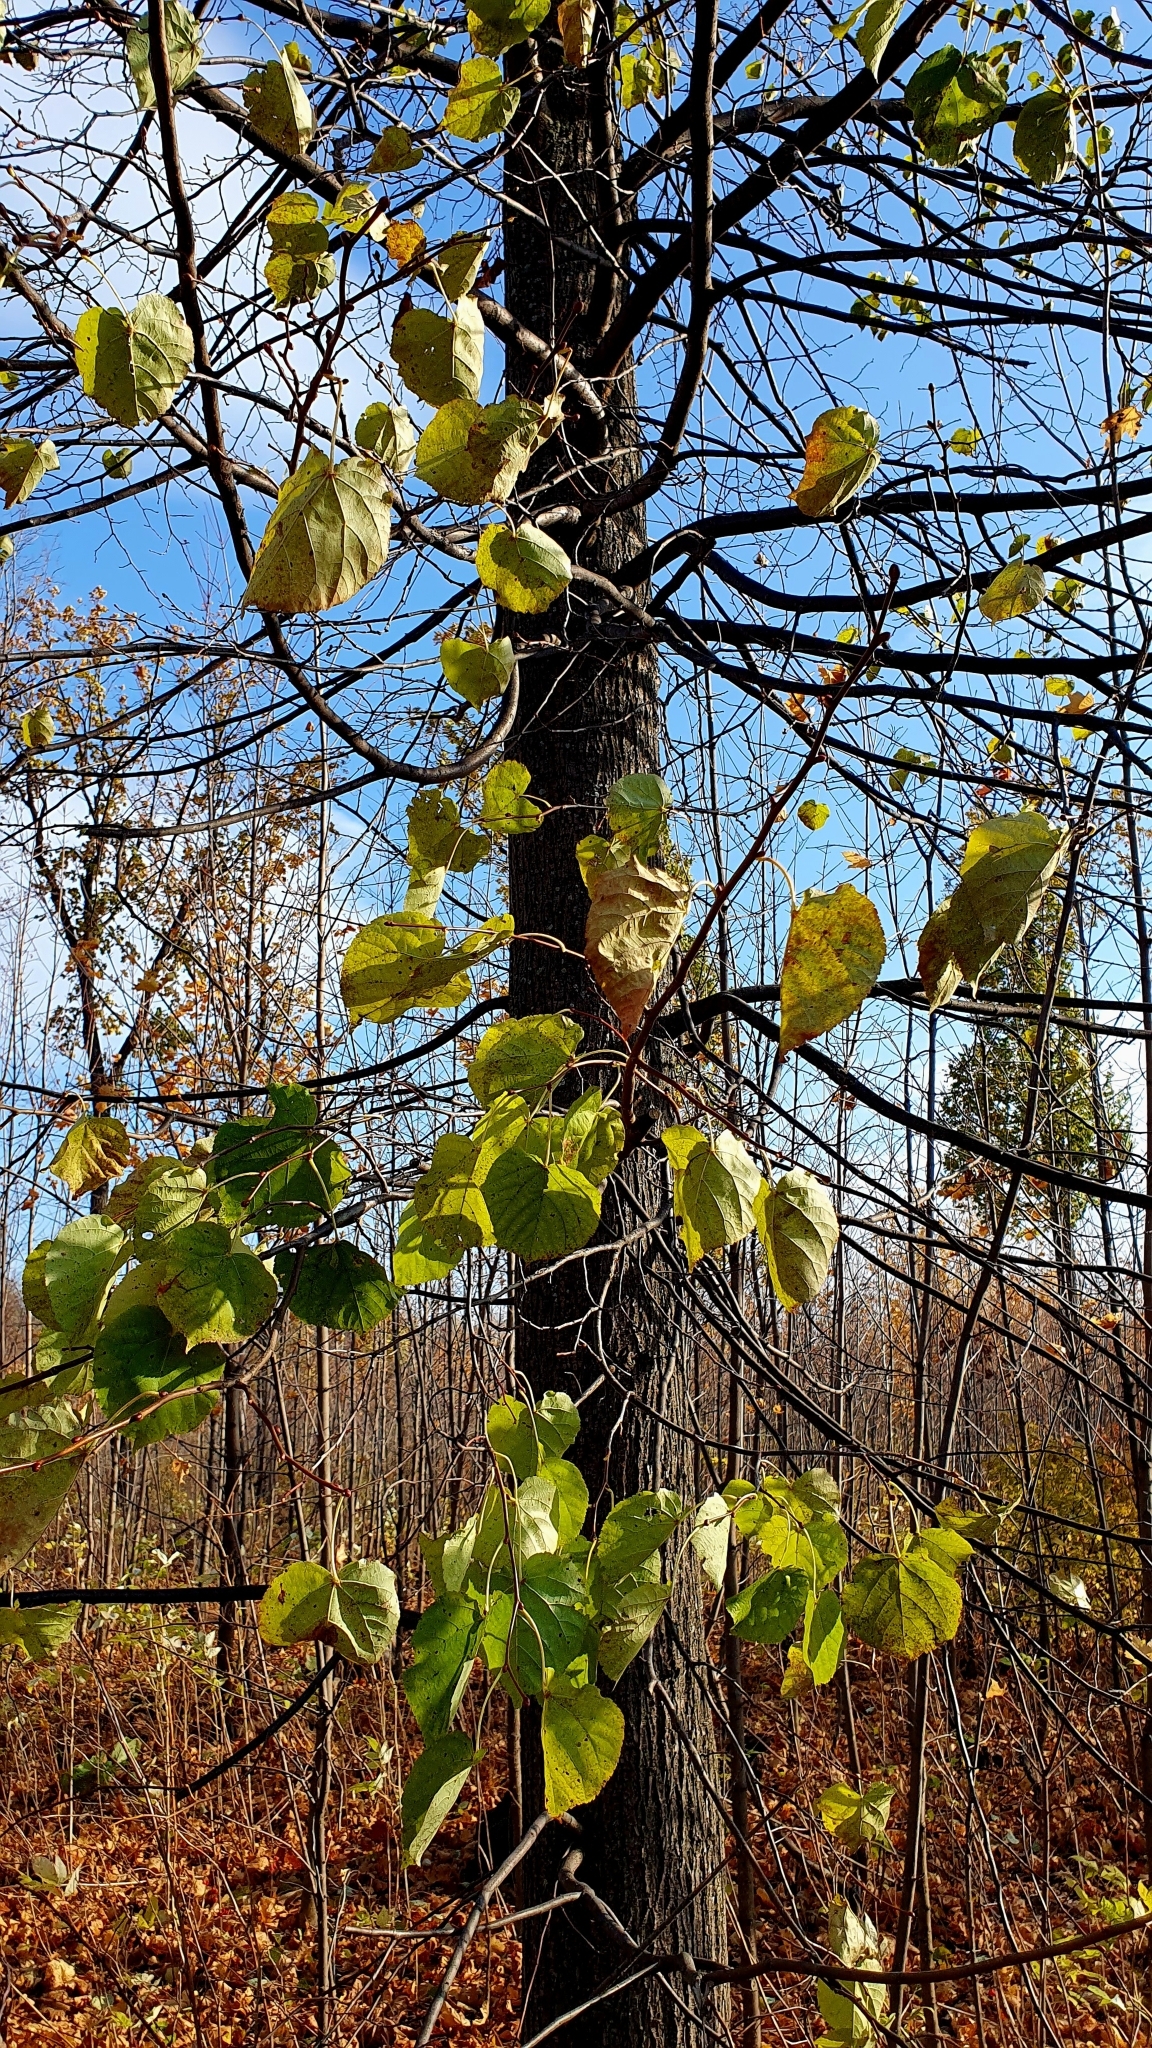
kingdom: Plantae
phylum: Tracheophyta
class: Magnoliopsida
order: Malvales
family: Malvaceae
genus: Tilia
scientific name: Tilia cordata
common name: Small-leaved lime
